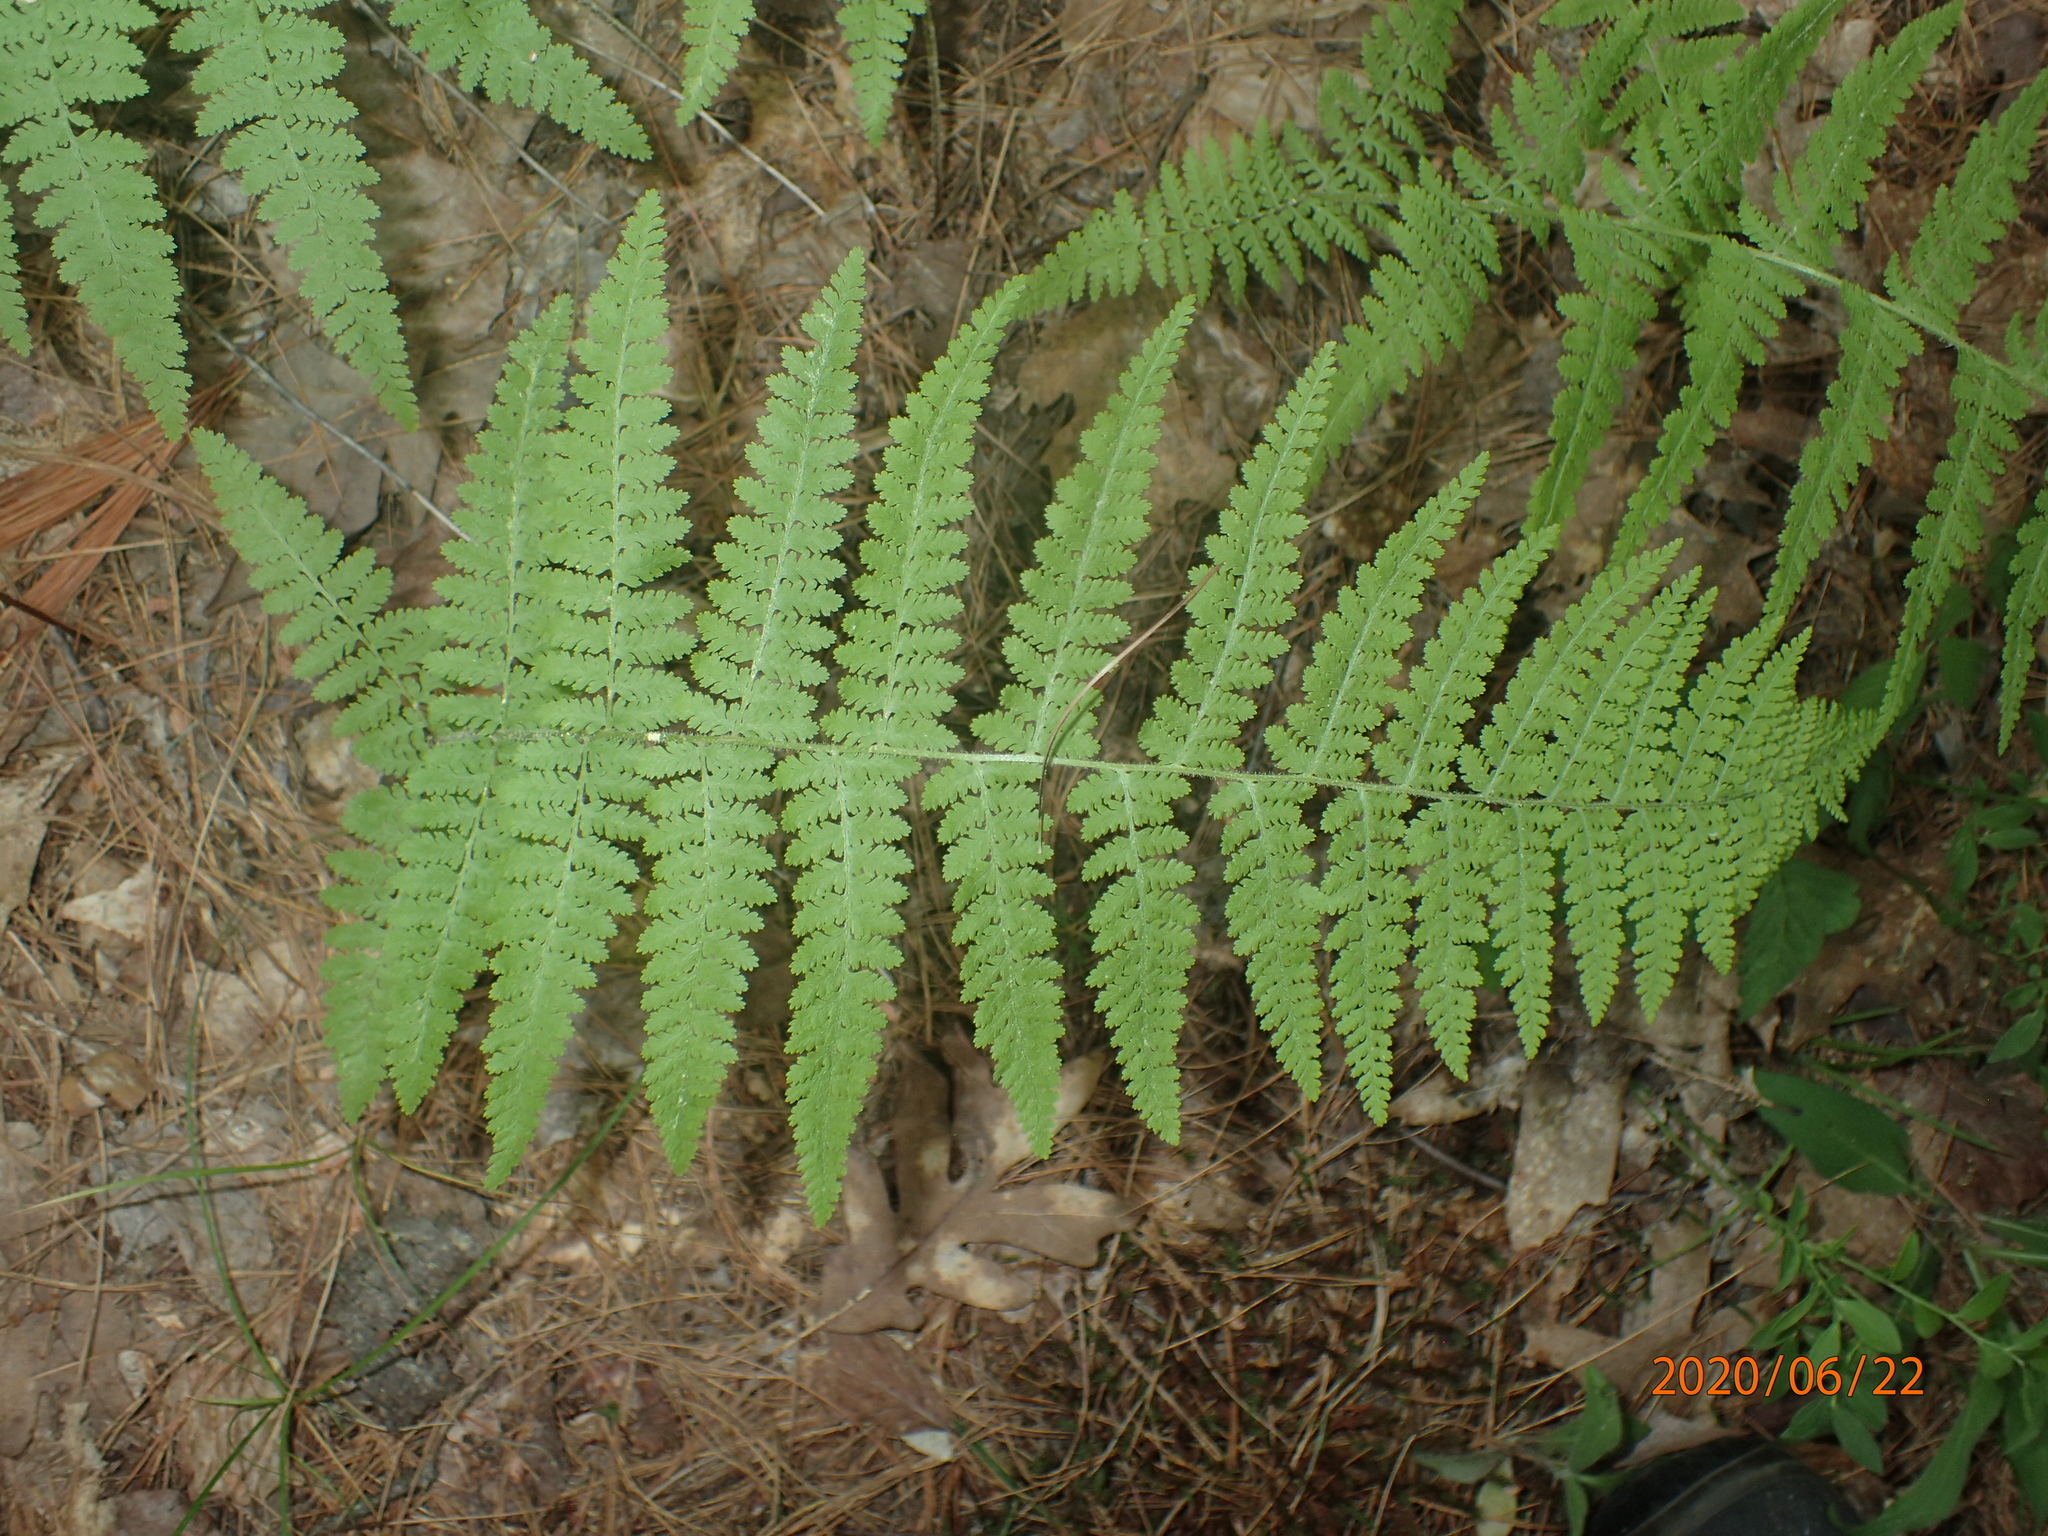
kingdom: Plantae
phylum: Tracheophyta
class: Polypodiopsida
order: Polypodiales
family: Dennstaedtiaceae
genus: Sitobolium
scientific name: Sitobolium punctilobum
